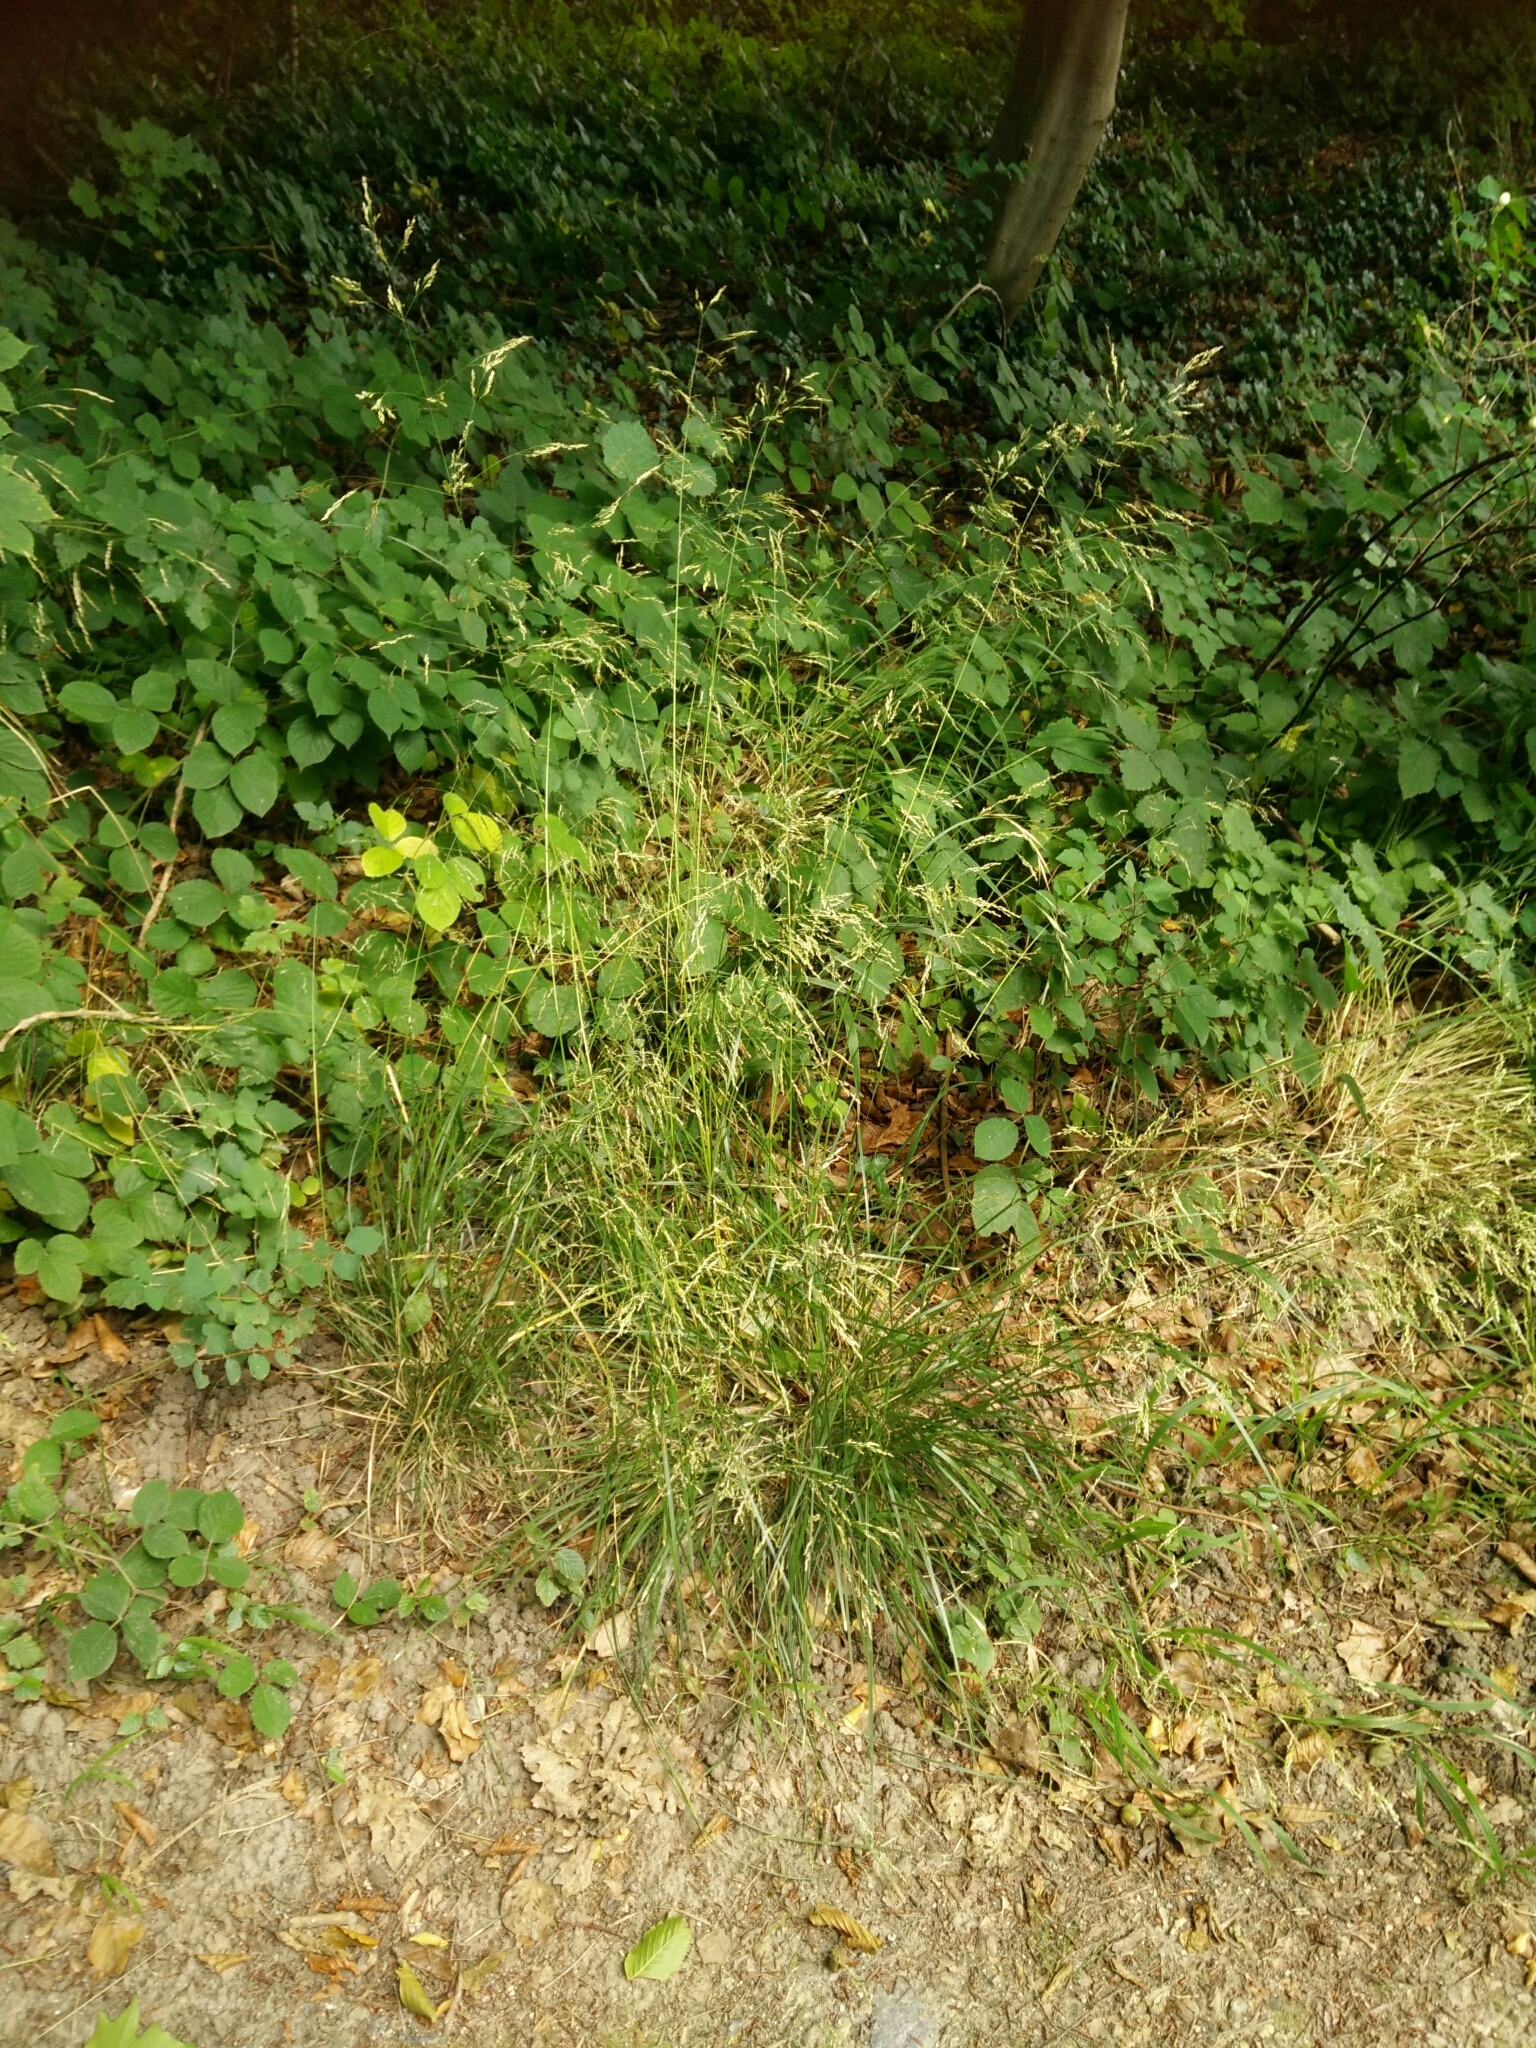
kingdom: Plantae
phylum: Tracheophyta
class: Liliopsida
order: Poales
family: Poaceae
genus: Deschampsia
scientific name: Deschampsia cespitosa
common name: Tufted hair-grass
